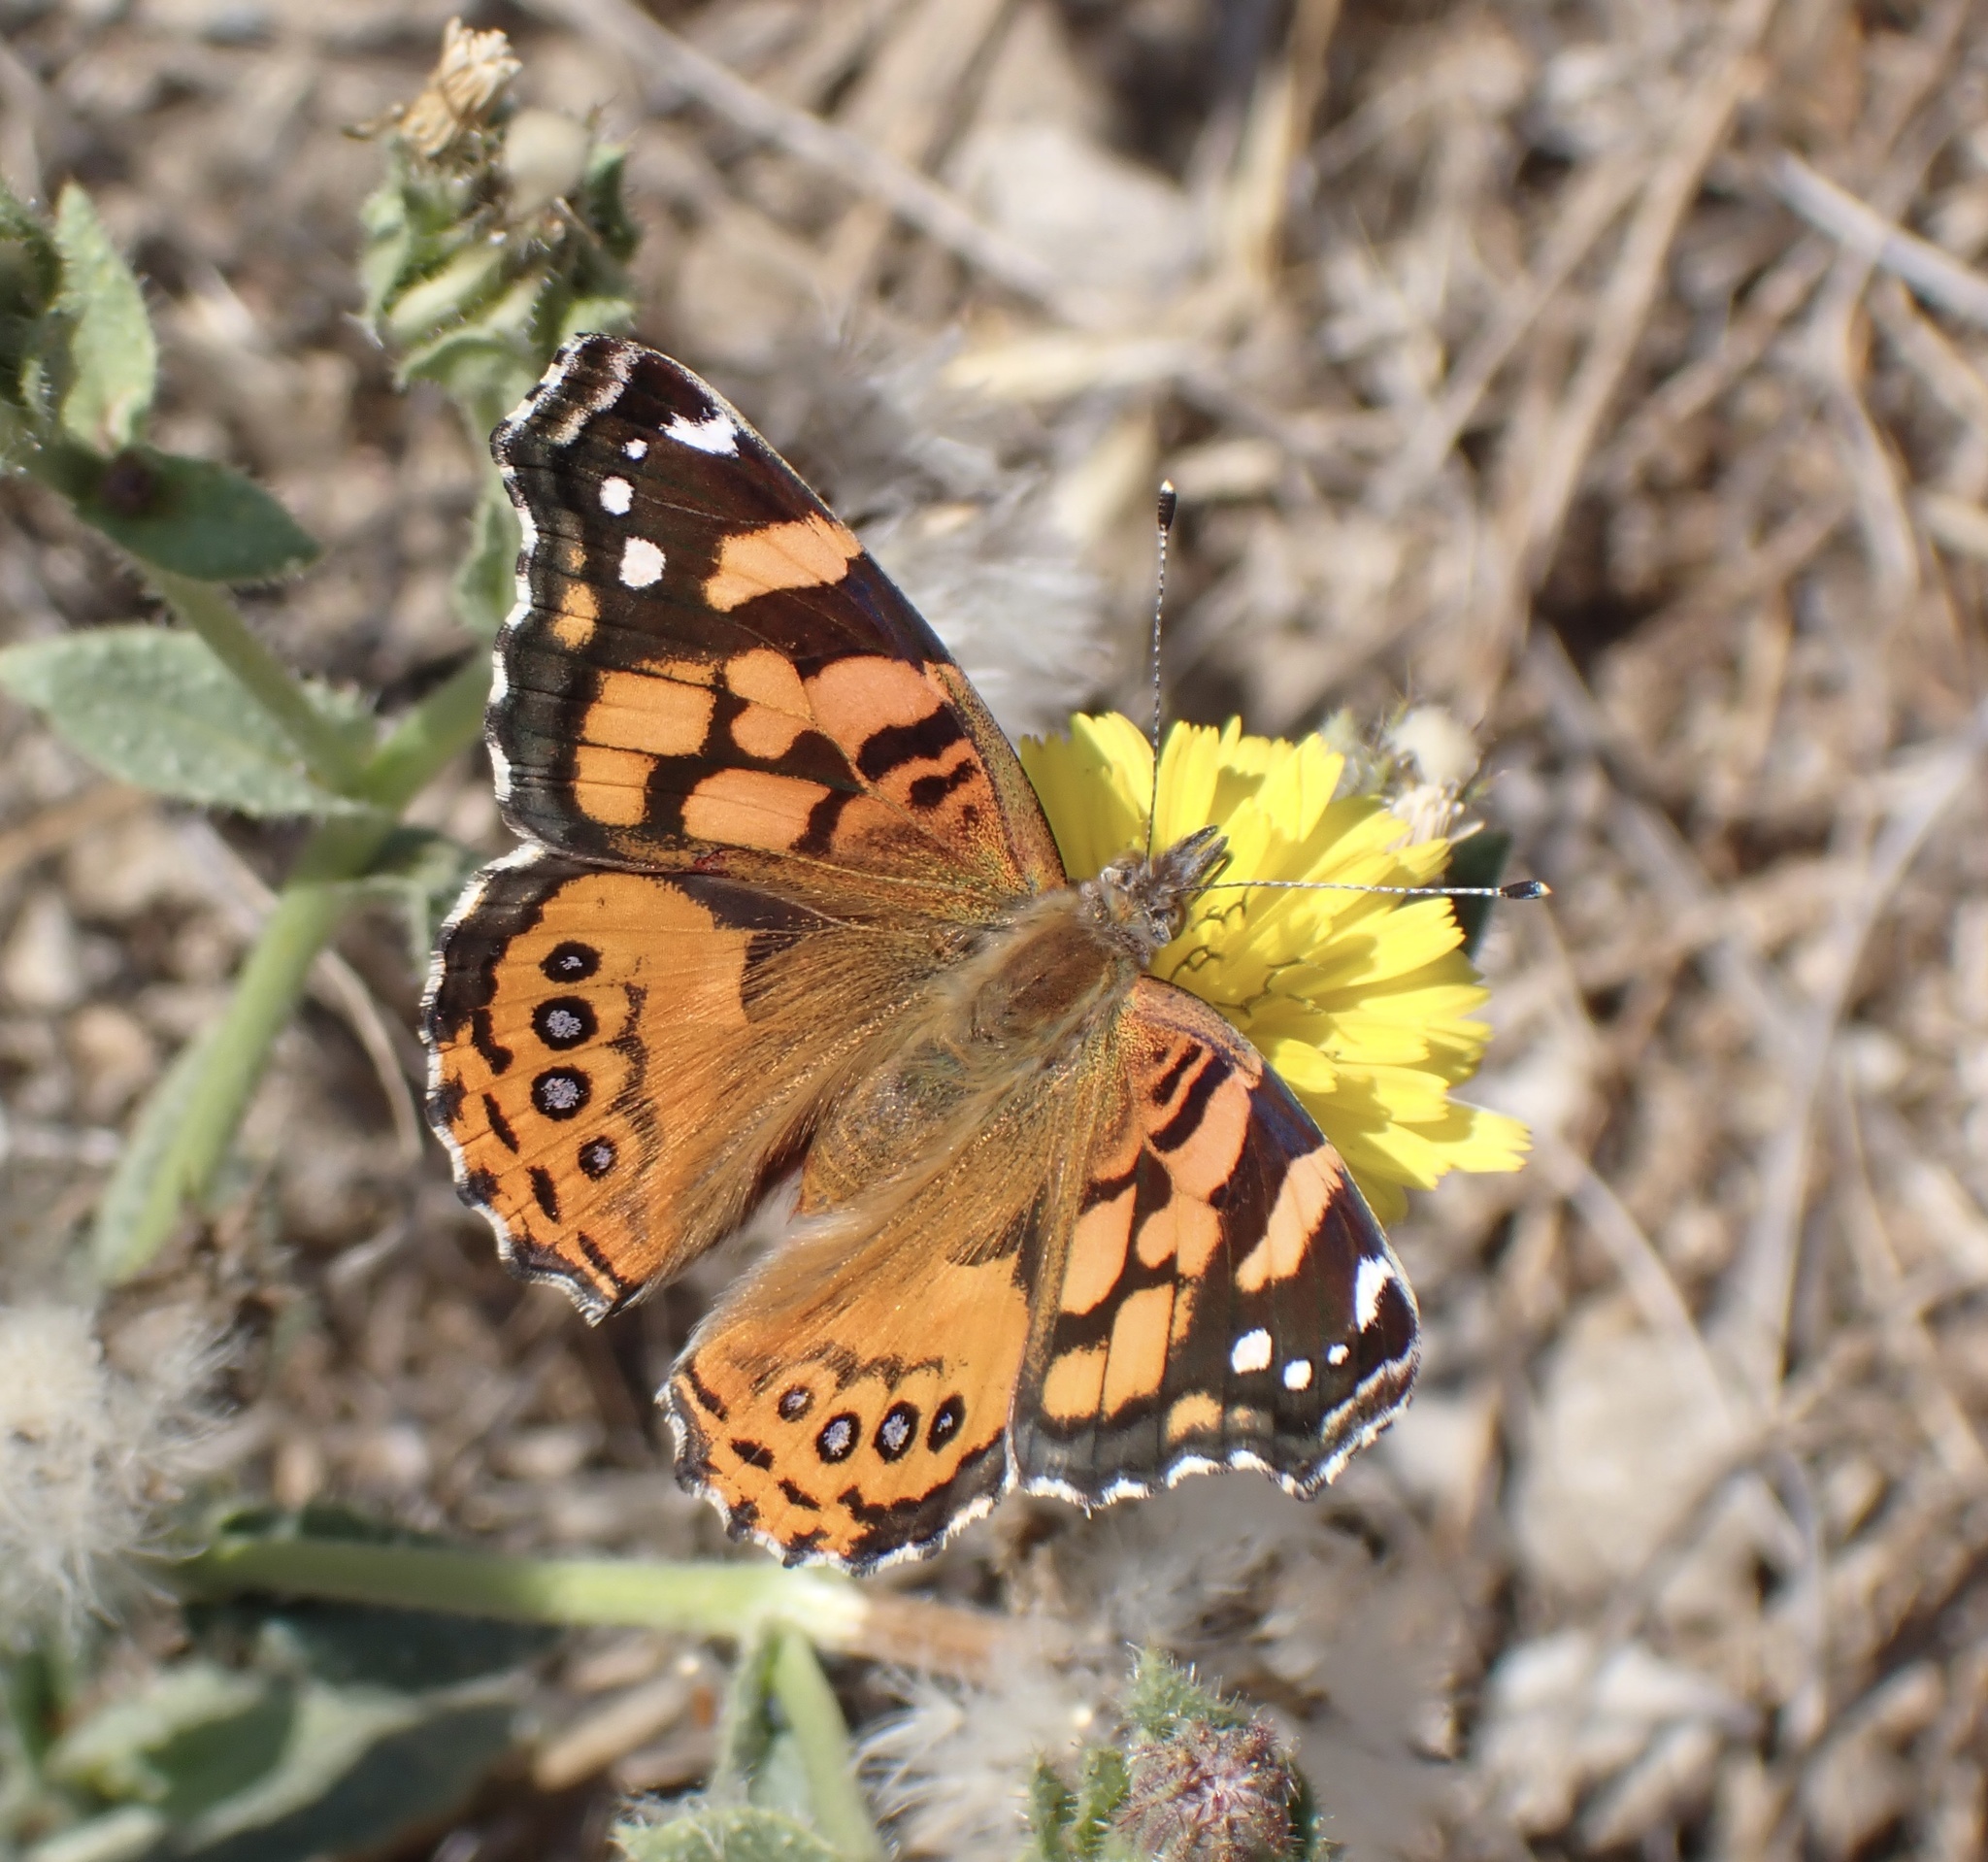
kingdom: Animalia
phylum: Arthropoda
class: Insecta
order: Lepidoptera
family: Nymphalidae
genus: Vanessa
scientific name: Vanessa annabella
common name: West coast lady
